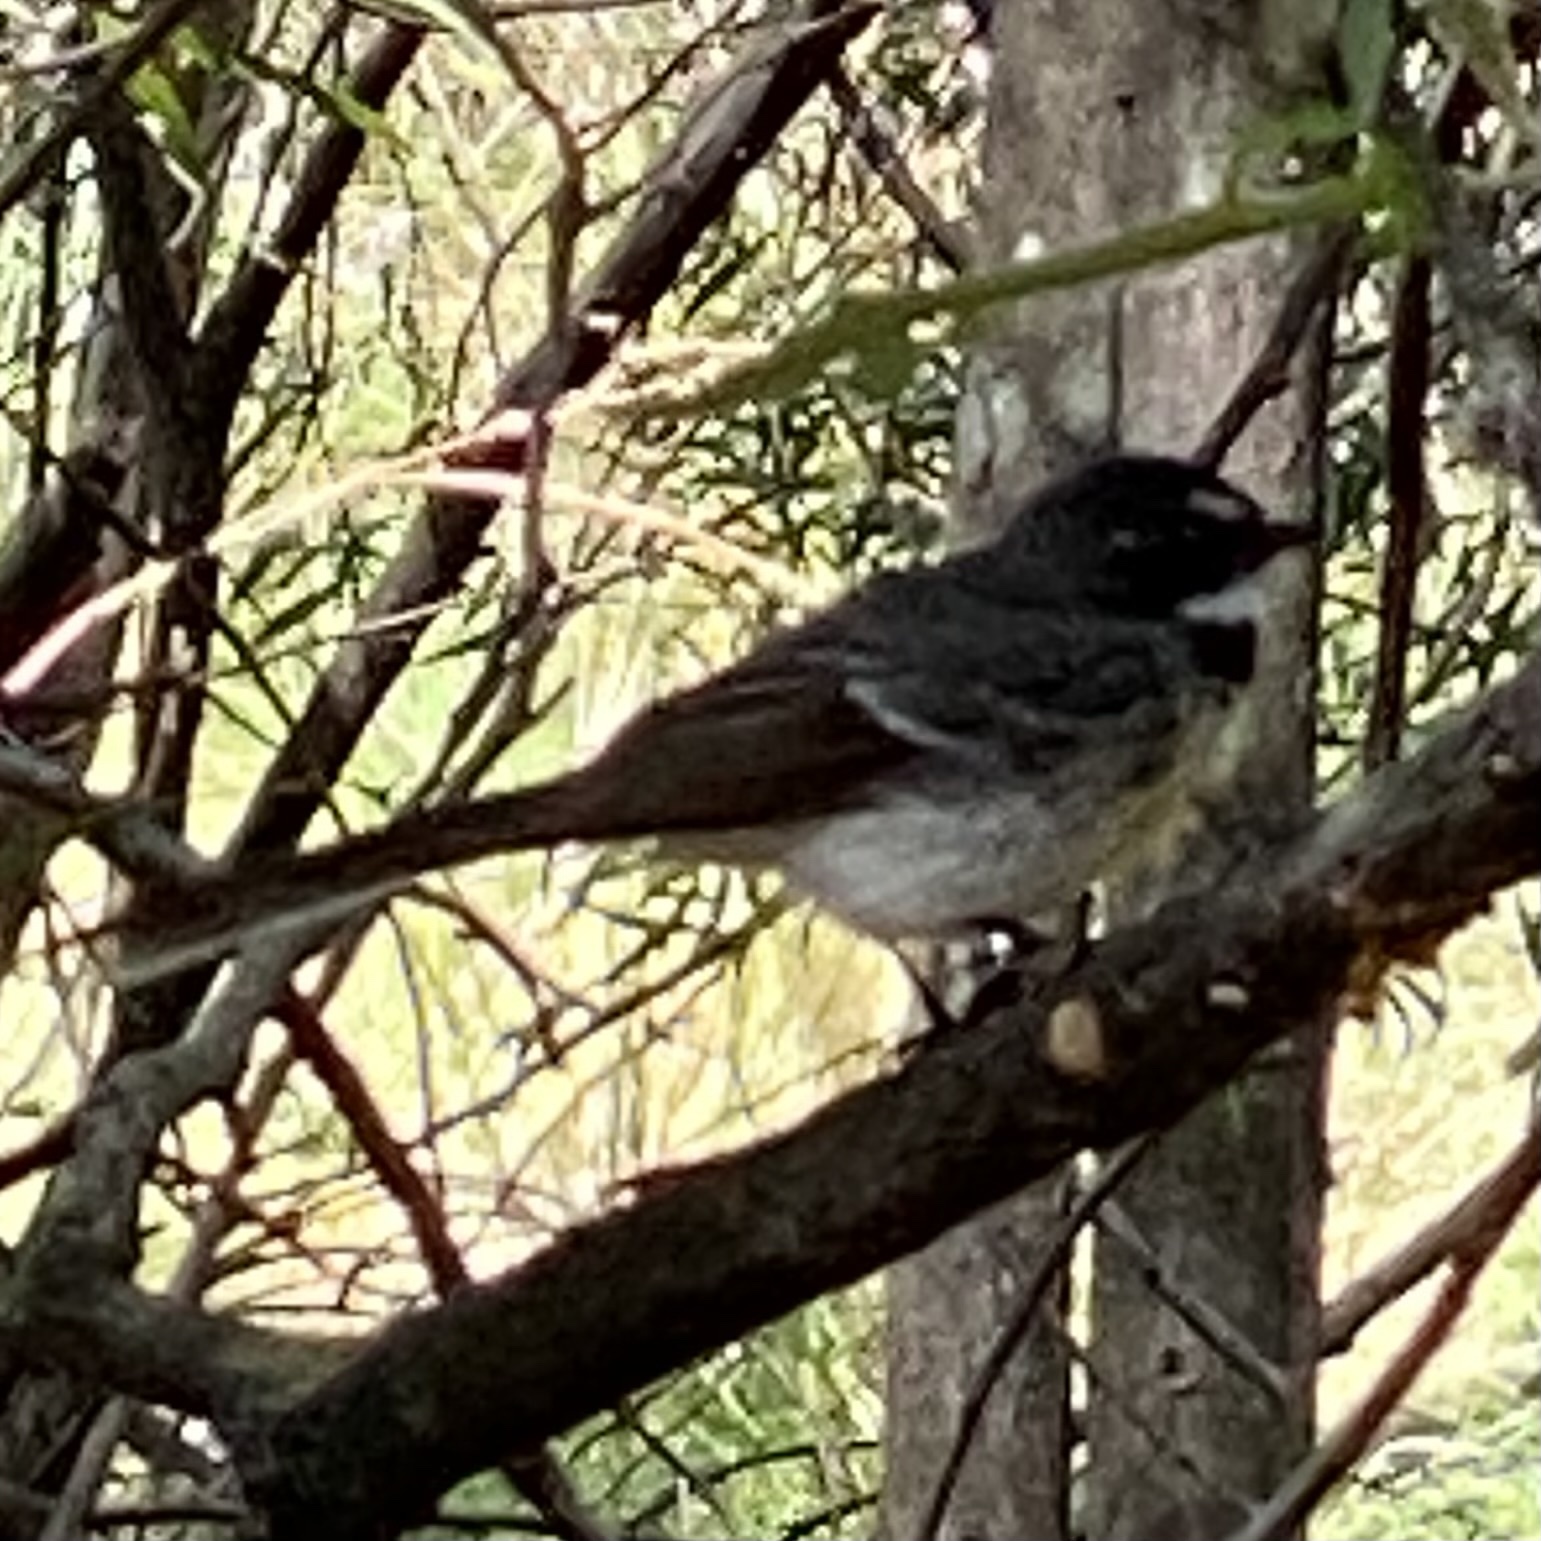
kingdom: Animalia
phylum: Chordata
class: Aves
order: Passeriformes
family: Rhipiduridae
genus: Rhipidura
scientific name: Rhipidura leucophrys
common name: Willie wagtail
